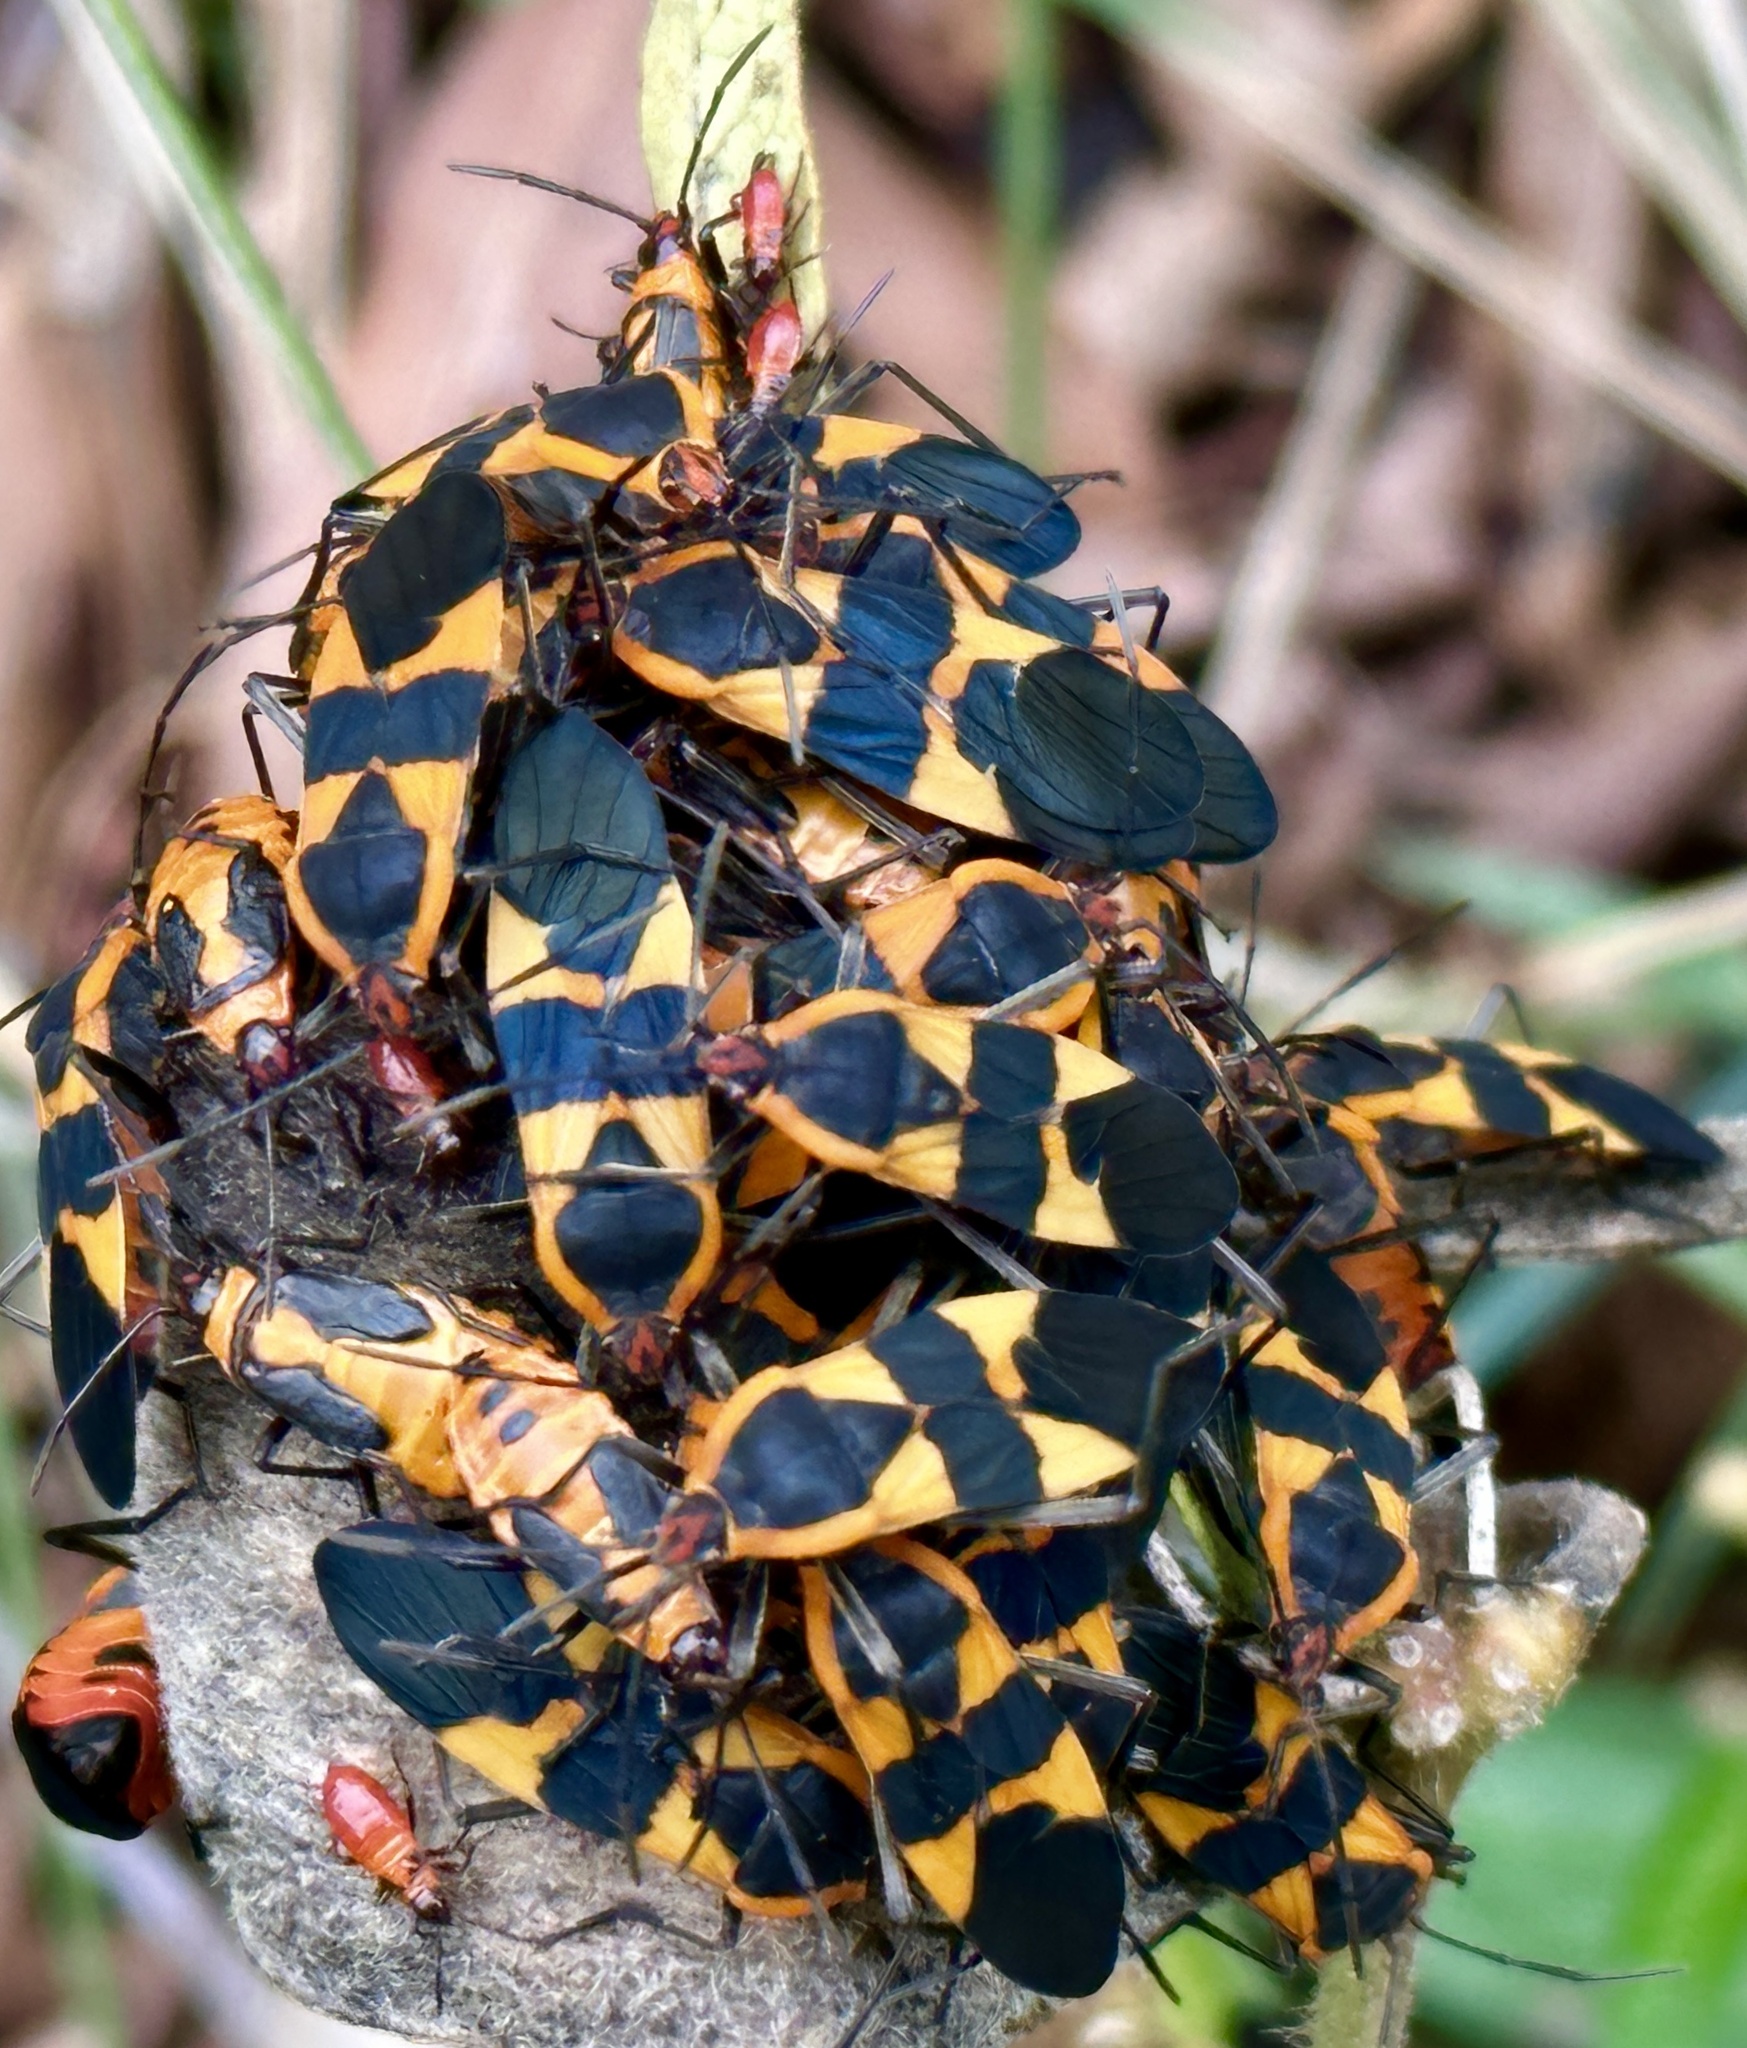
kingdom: Animalia
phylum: Arthropoda
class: Insecta
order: Hemiptera
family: Lygaeidae
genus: Oncopeltus
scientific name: Oncopeltus fasciatus
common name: Large milkweed bug
